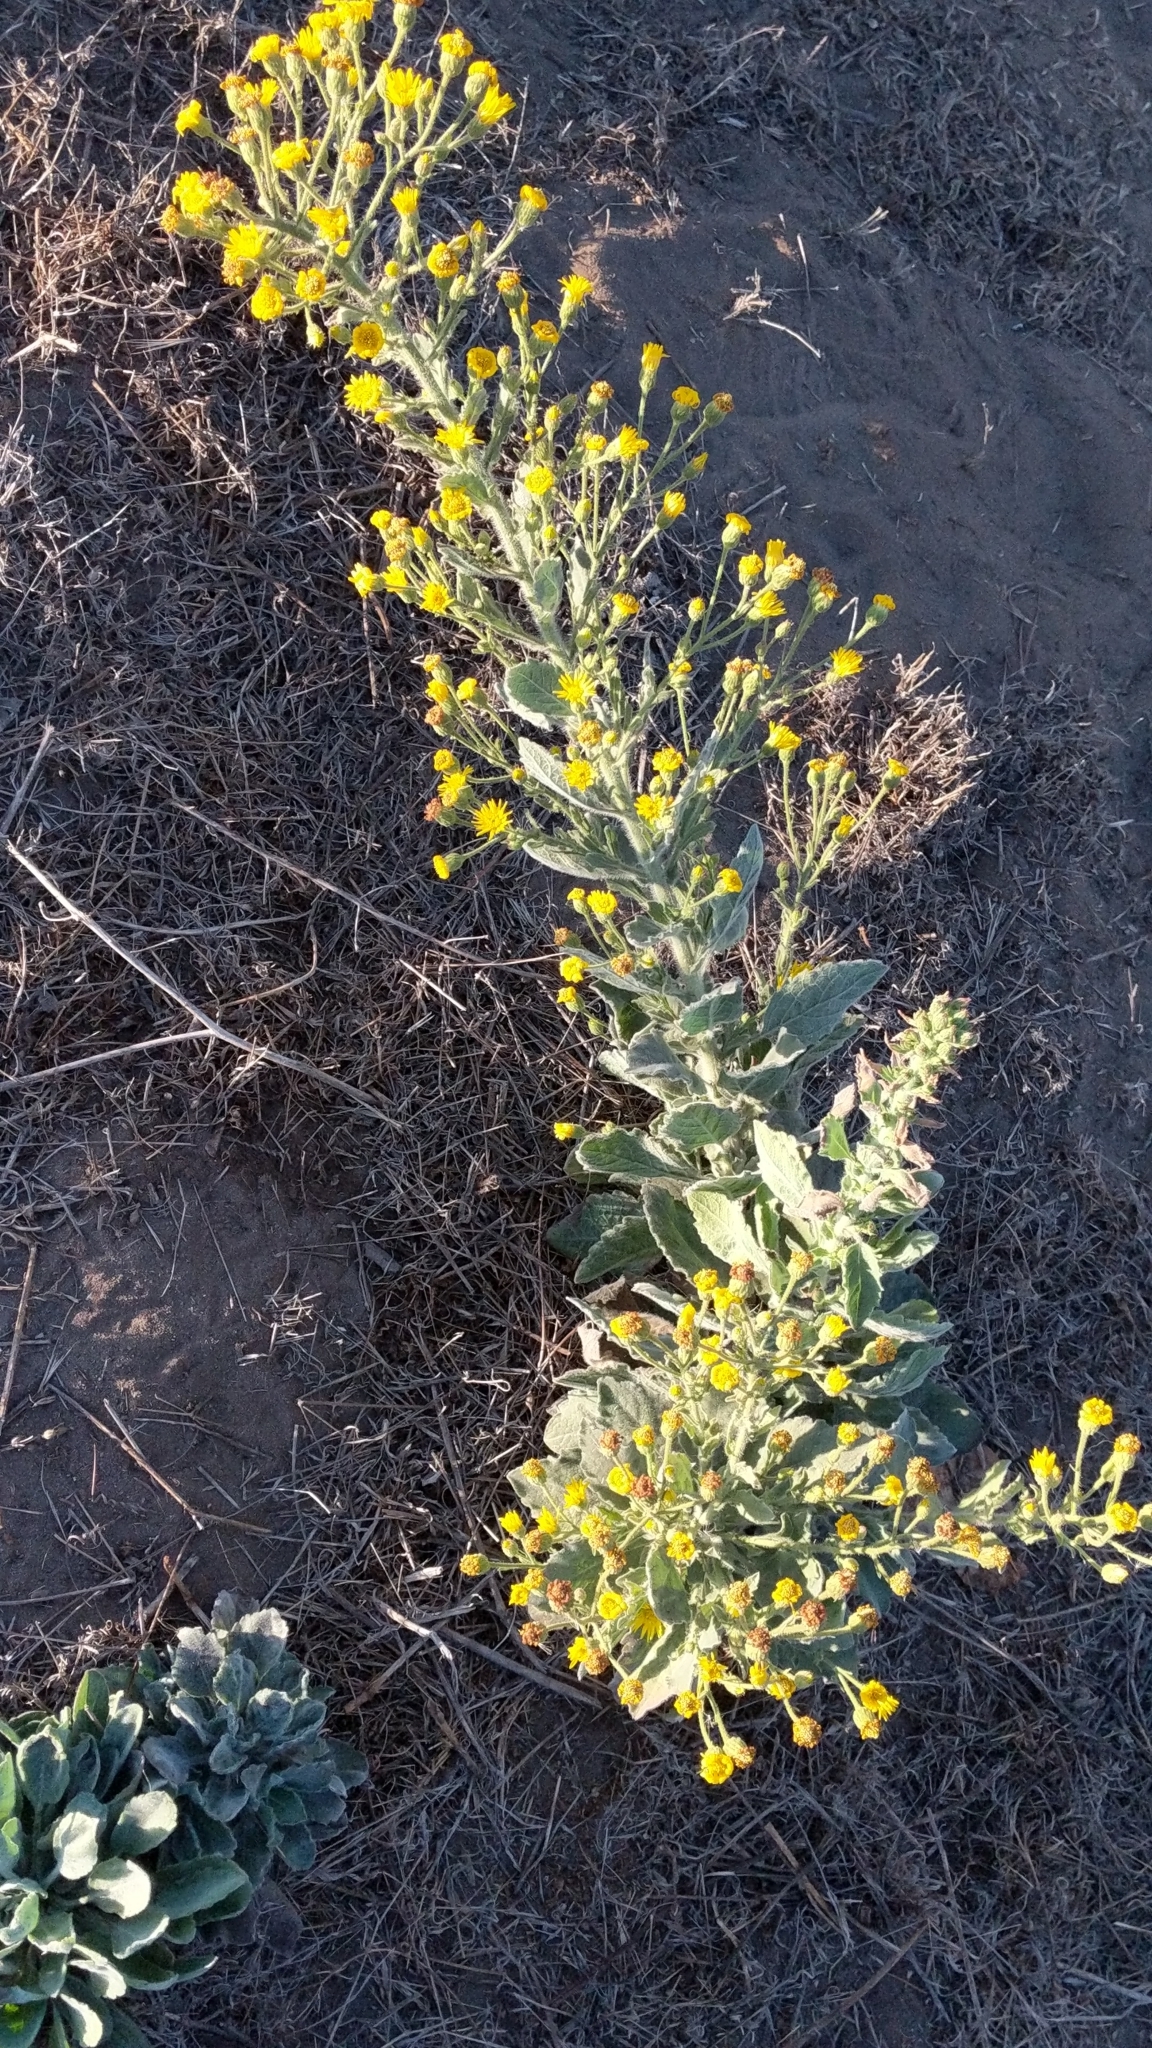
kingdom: Plantae
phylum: Tracheophyta
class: Magnoliopsida
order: Asterales
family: Asteraceae
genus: Heterotheca
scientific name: Heterotheca grandiflora
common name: Telegraphweed
